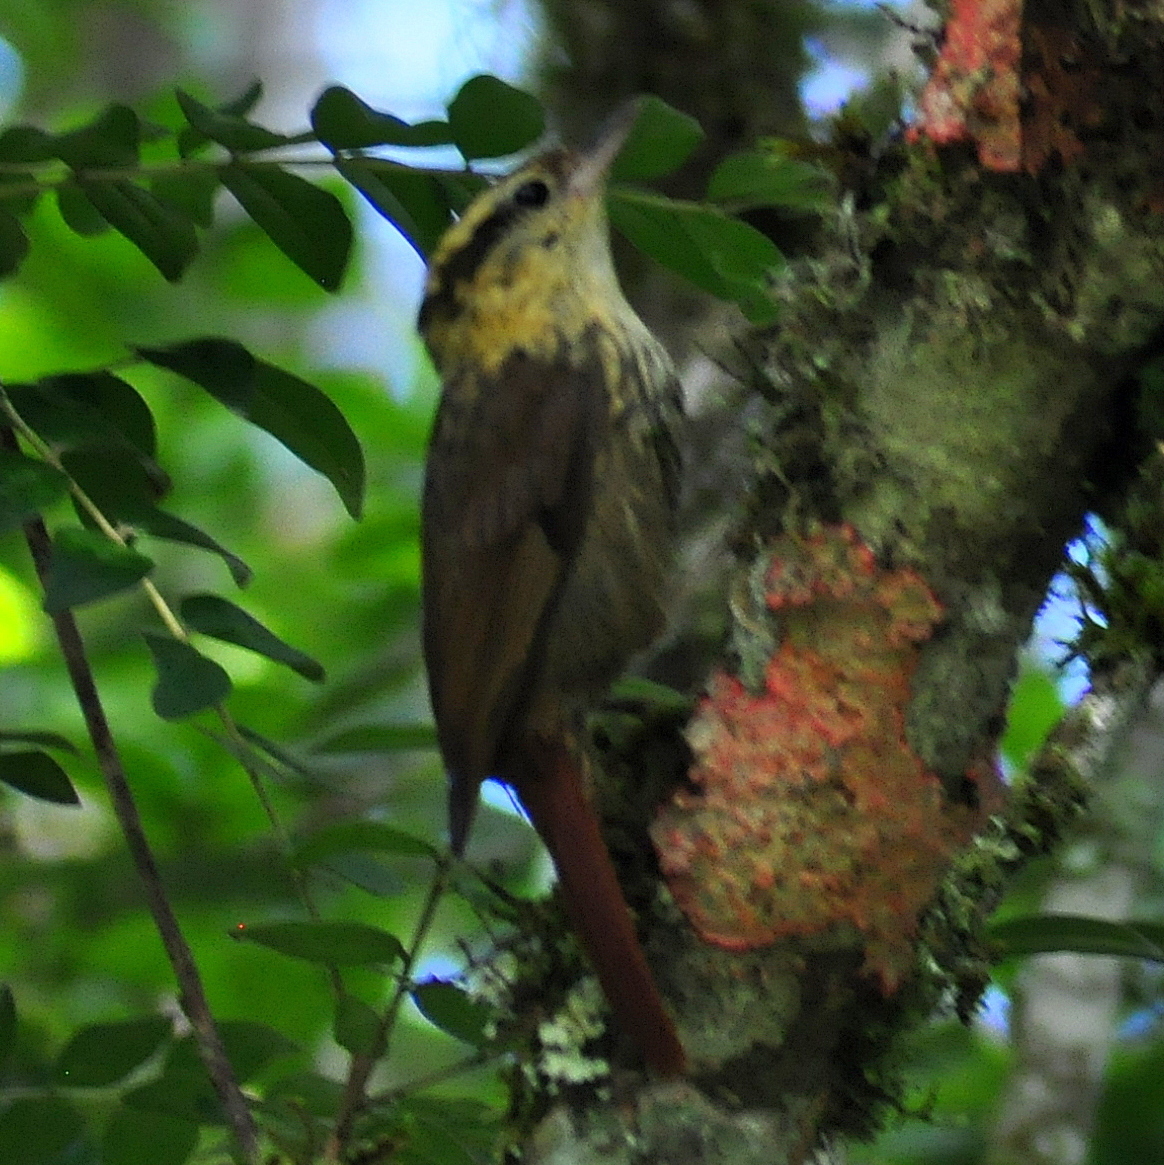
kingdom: Animalia
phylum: Chordata
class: Aves
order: Passeriformes
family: Furnariidae
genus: Heliobletus
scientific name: Heliobletus contaminatus
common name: Sharp-billed treehunter
